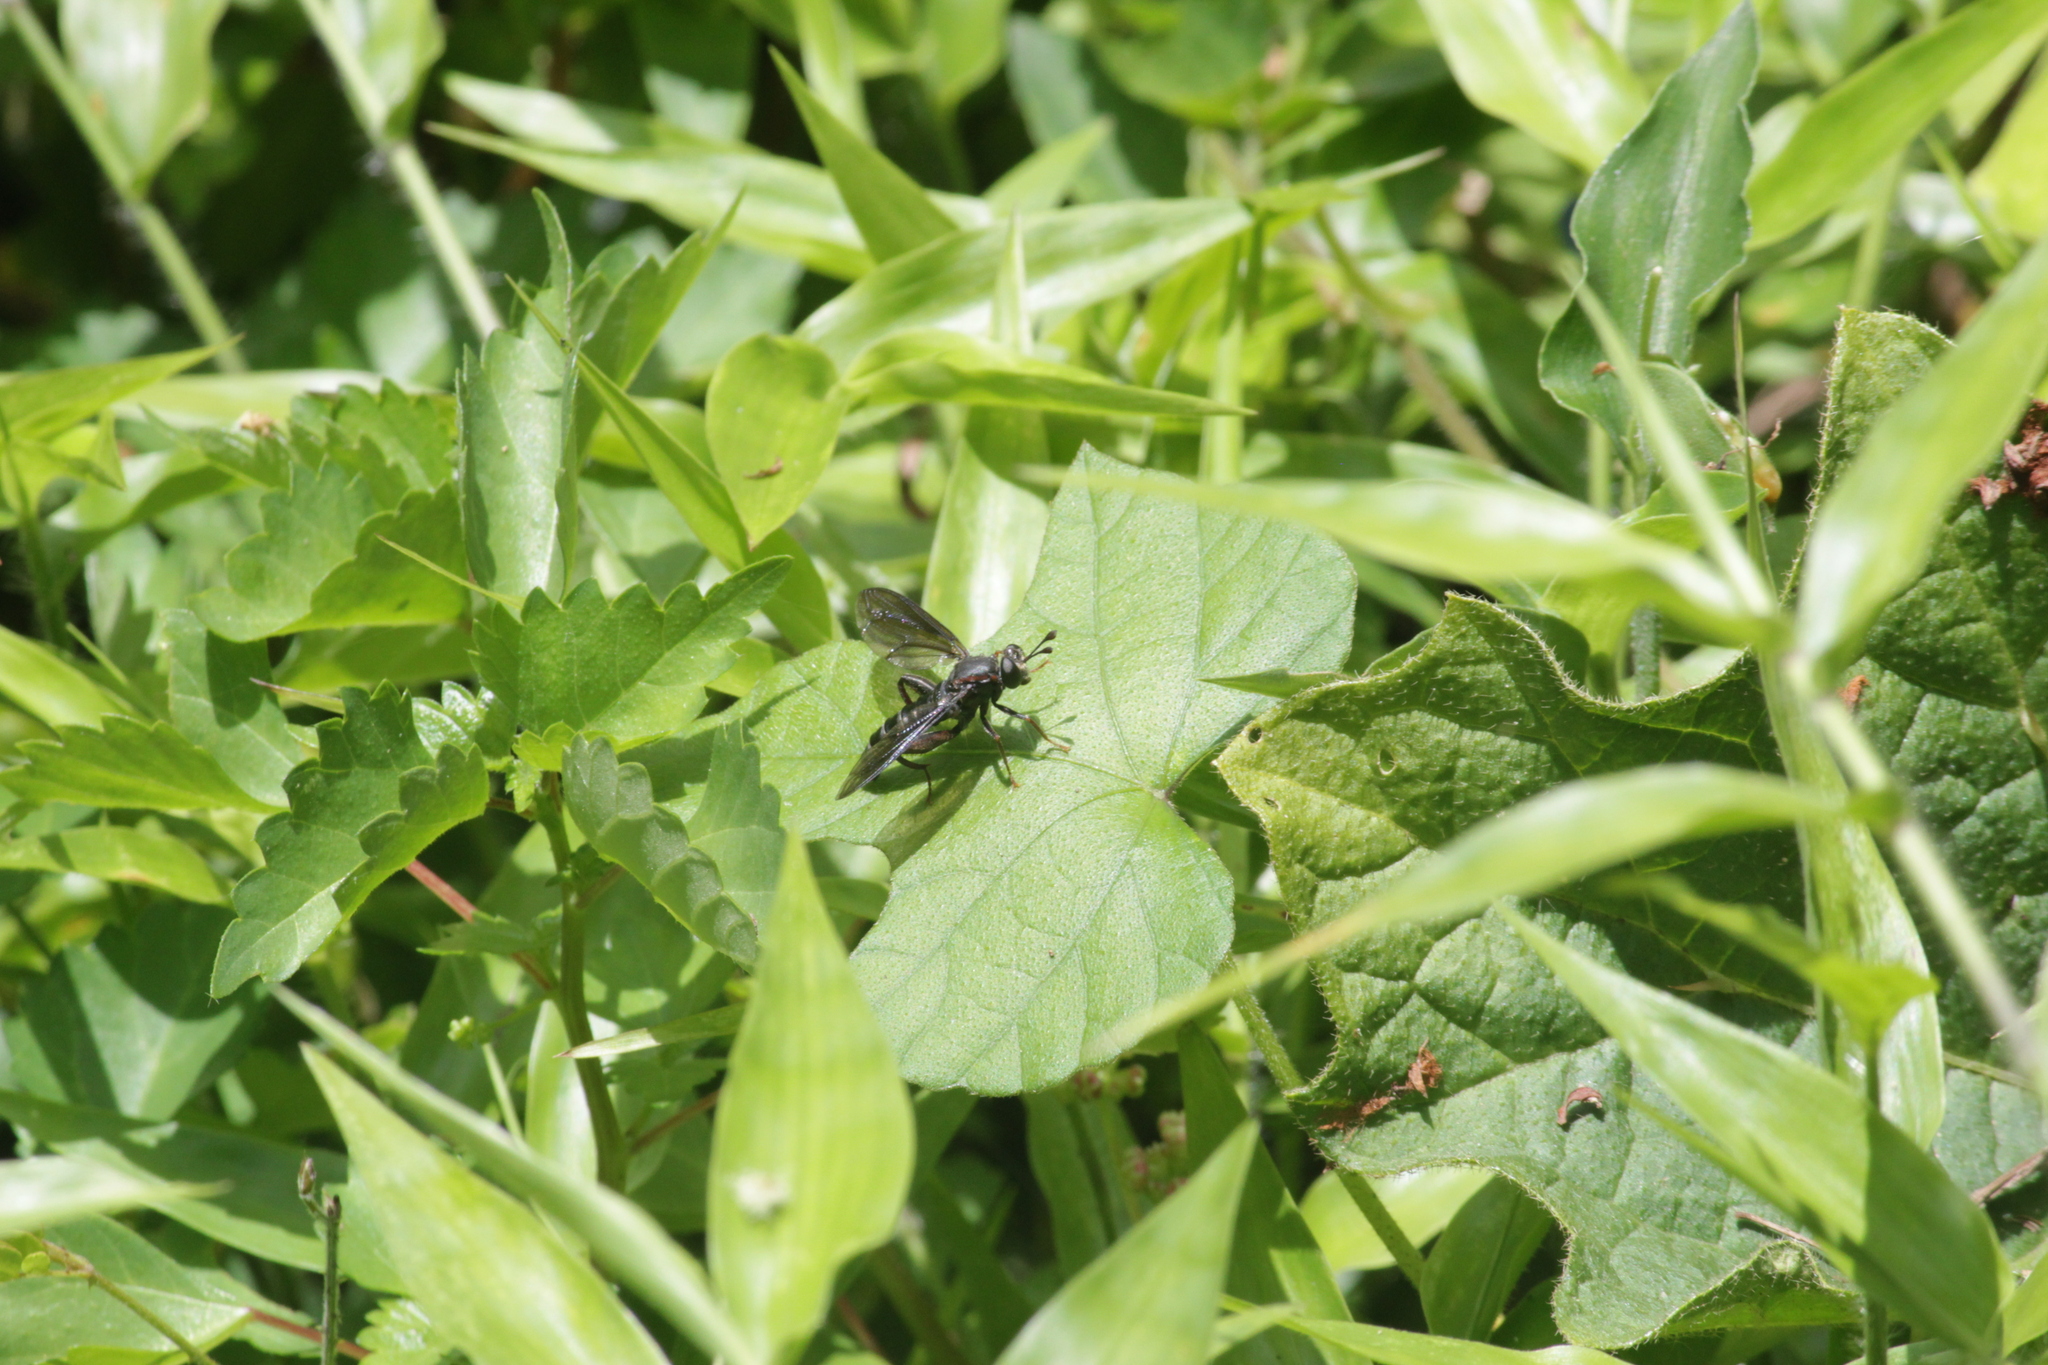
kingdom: Animalia
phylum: Arthropoda
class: Insecta
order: Diptera
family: Mydidae
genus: Ectyphus
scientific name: Ectyphus armipes
